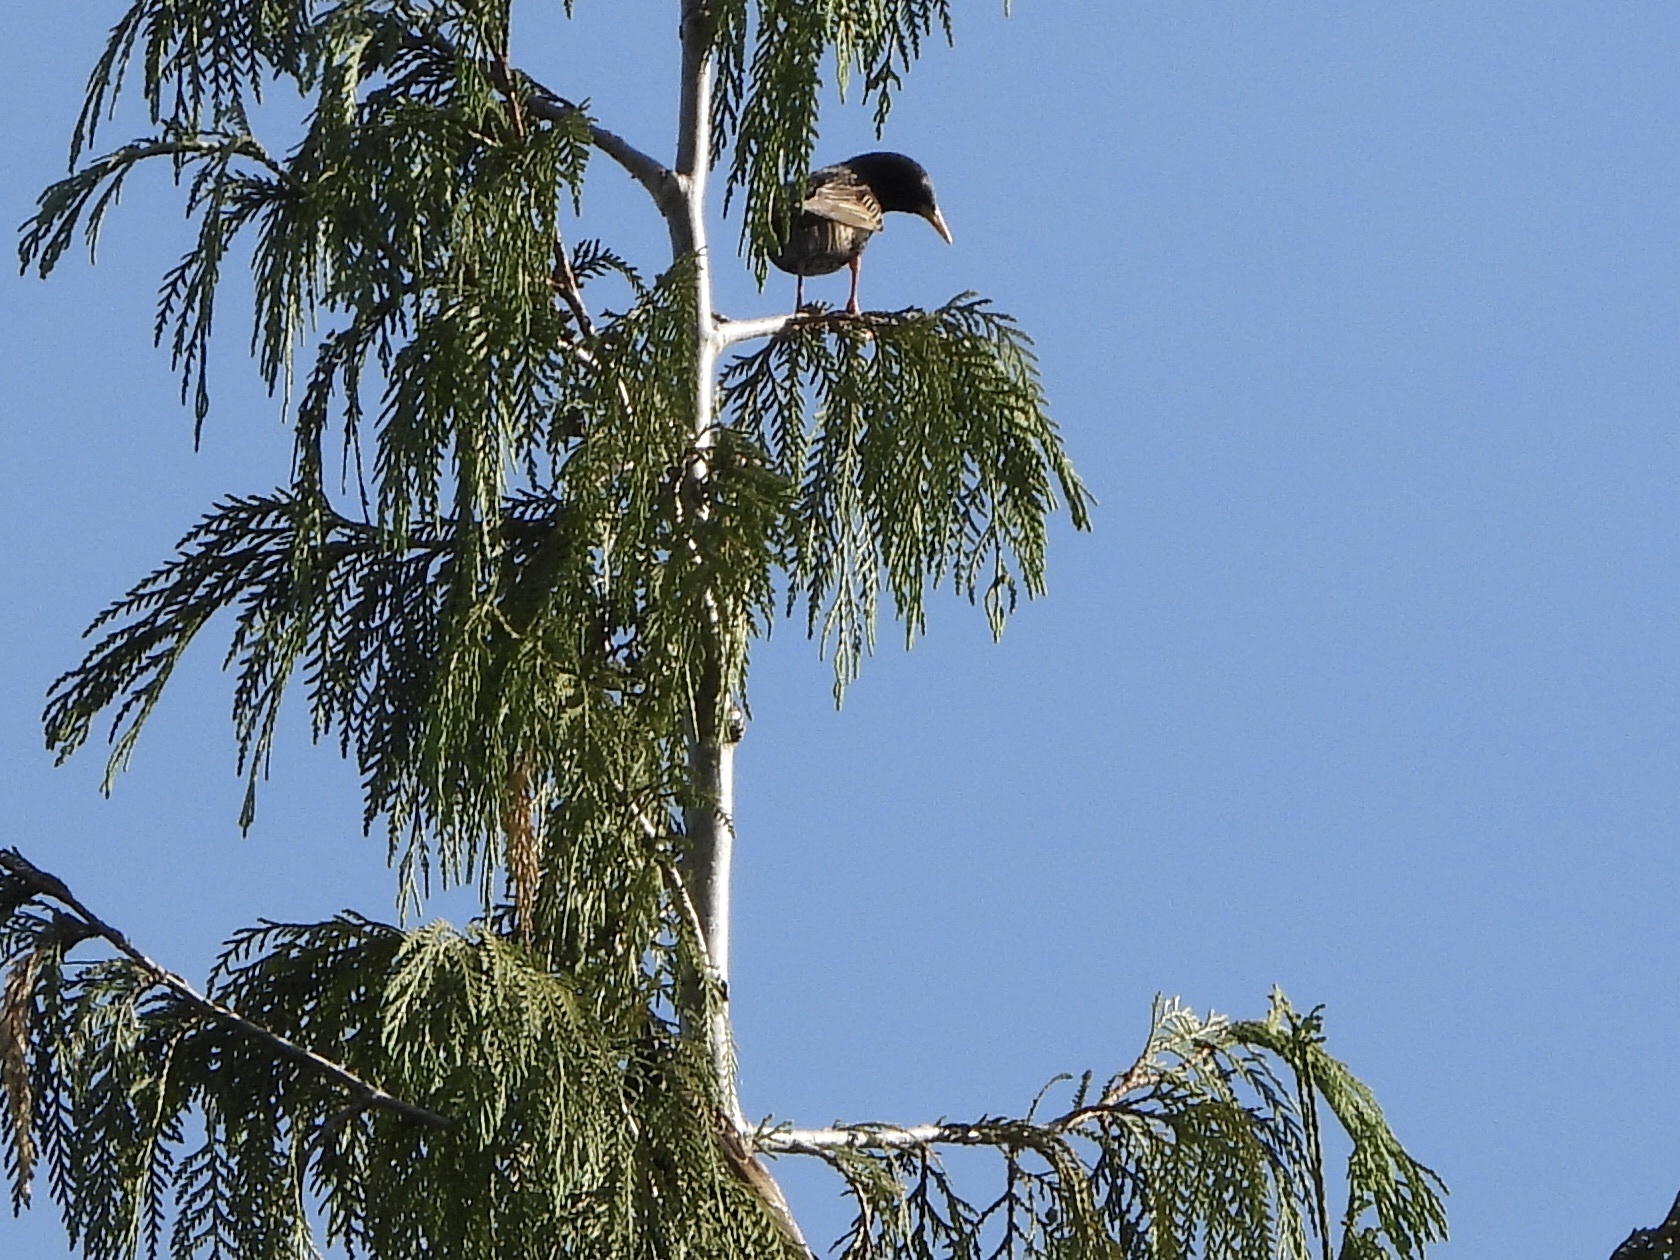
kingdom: Animalia
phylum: Chordata
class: Aves
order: Passeriformes
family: Sturnidae
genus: Sturnus
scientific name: Sturnus vulgaris
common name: Common starling
